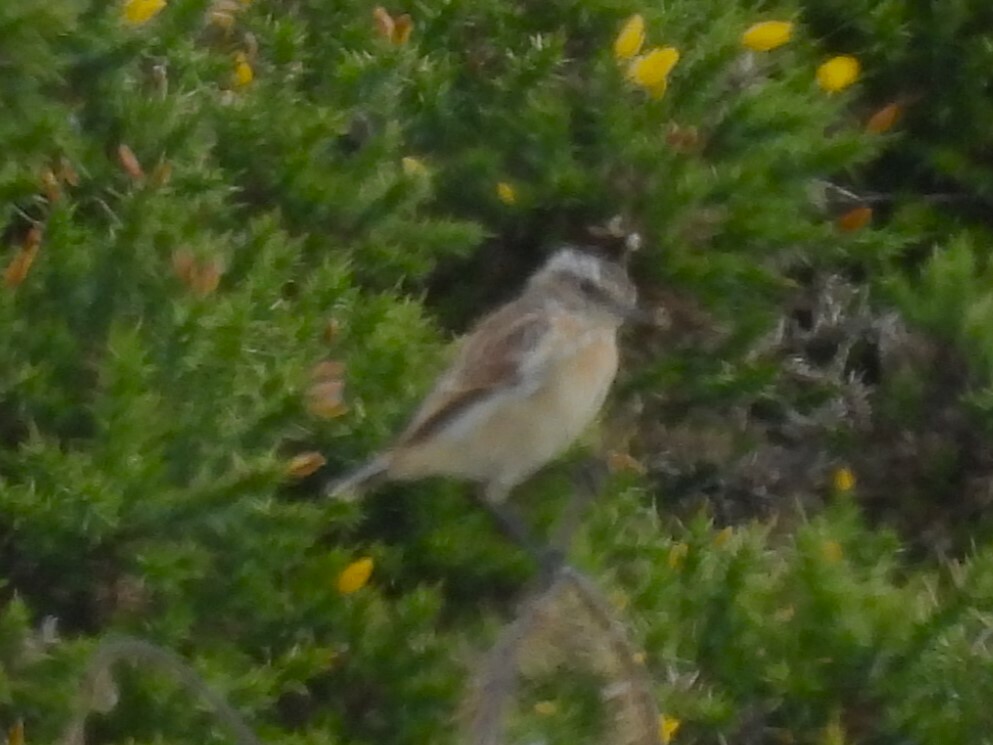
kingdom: Animalia
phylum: Chordata
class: Aves
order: Passeriformes
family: Muscicapidae
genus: Saxicola
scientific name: Saxicola rubetra
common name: Whinchat
